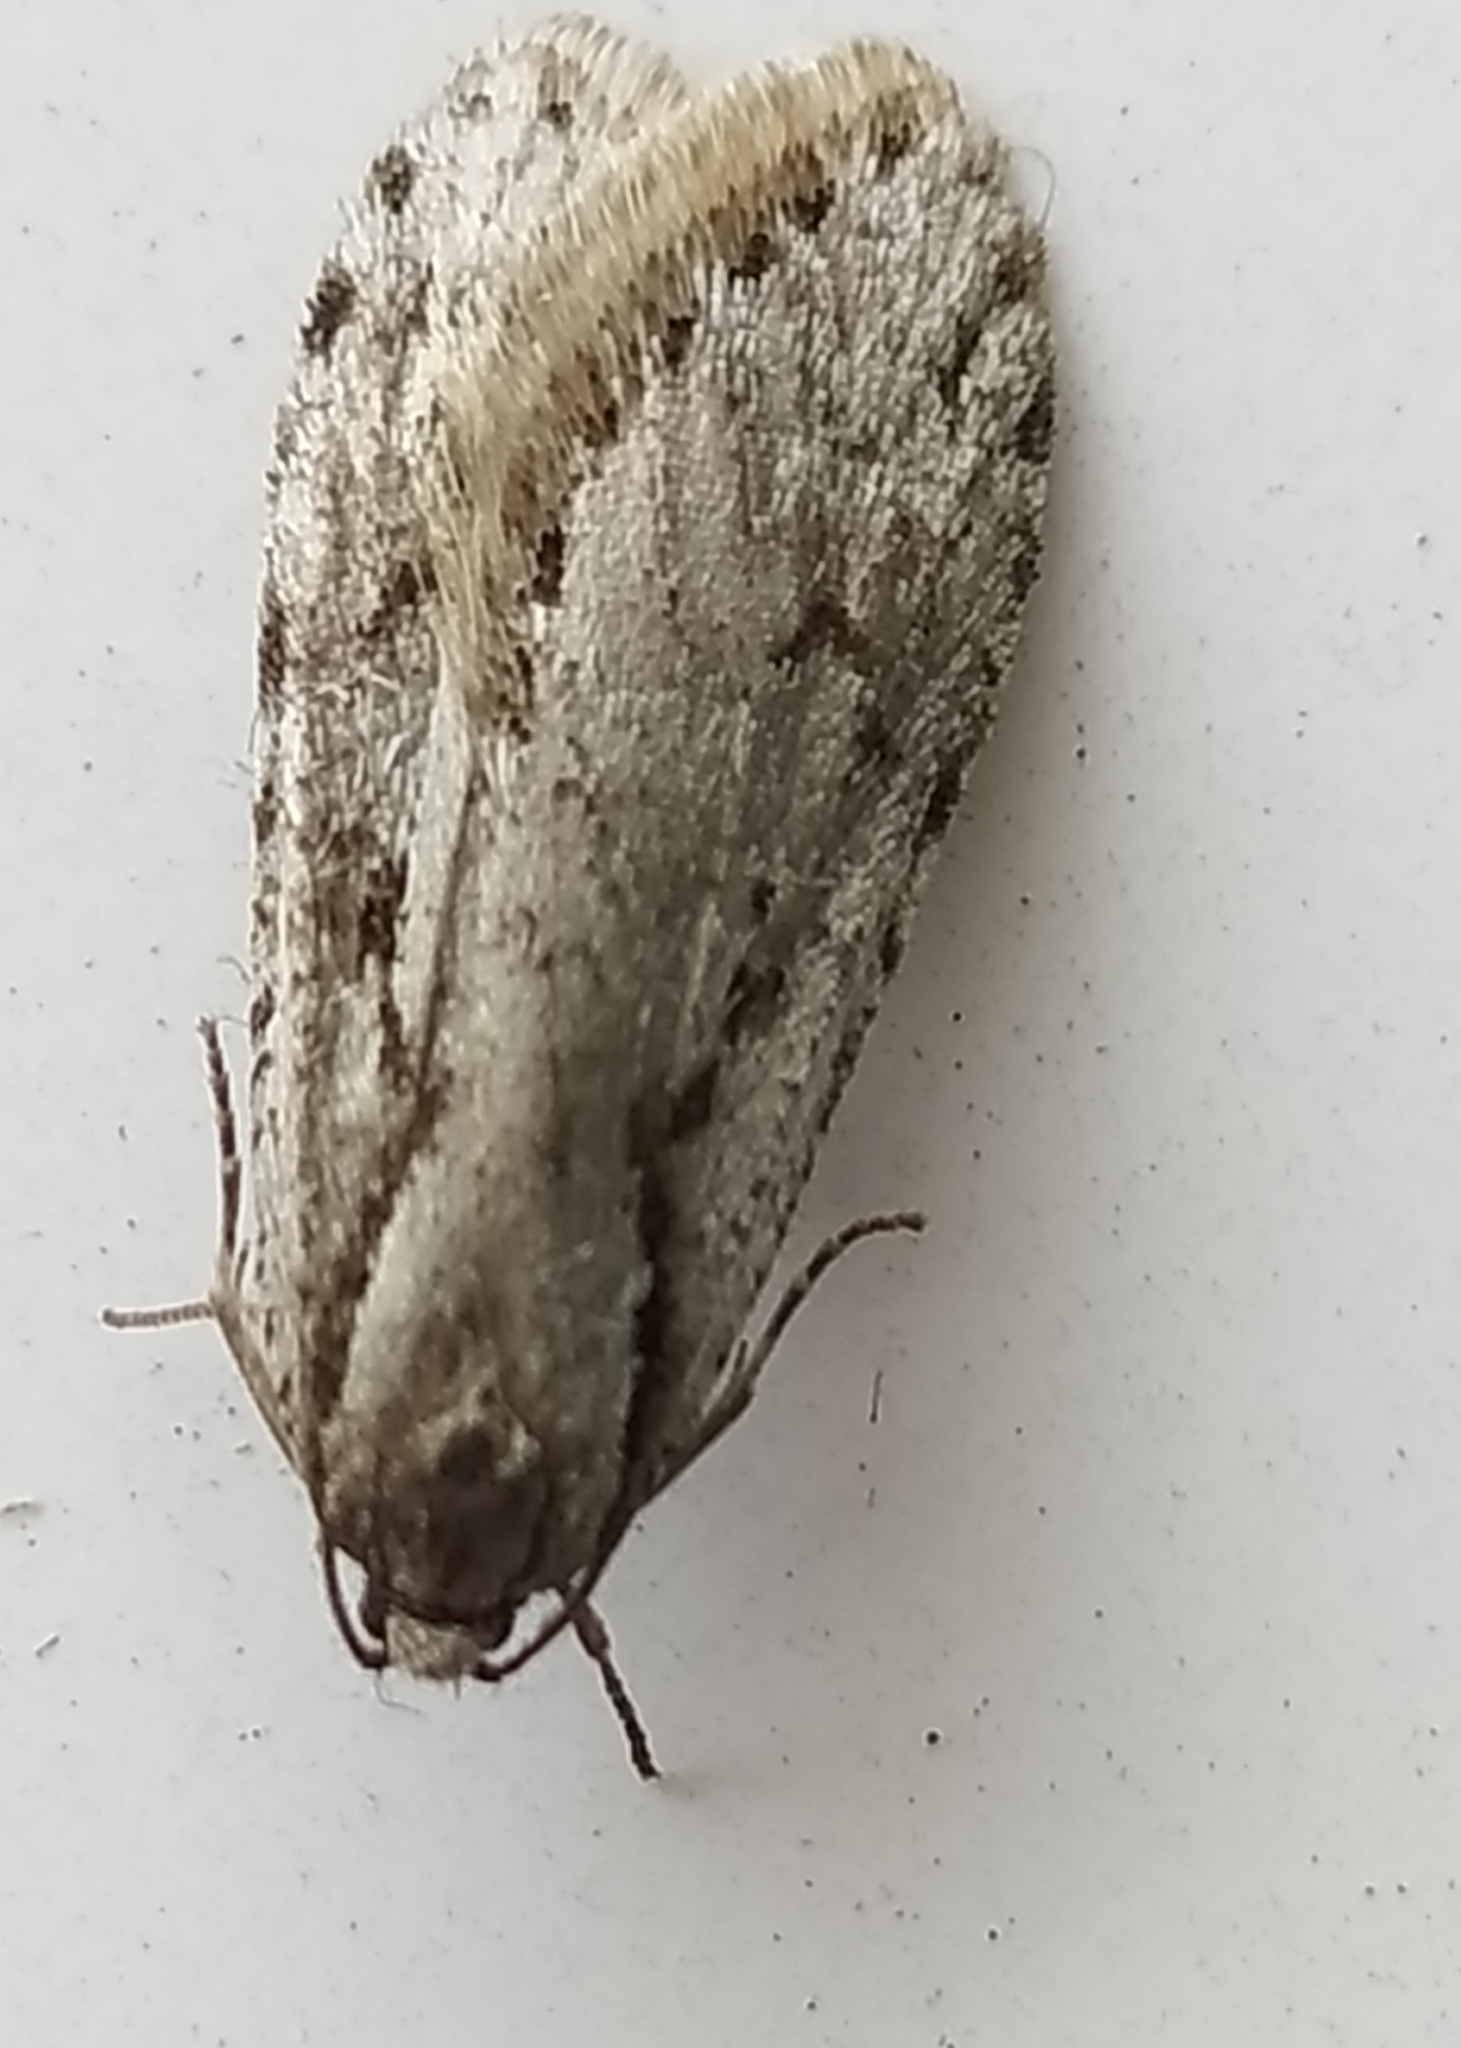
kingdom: Animalia
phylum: Arthropoda
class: Insecta
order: Lepidoptera
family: Depressariidae
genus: Semioscopis
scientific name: Semioscopis avellanella
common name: Early flat-body
